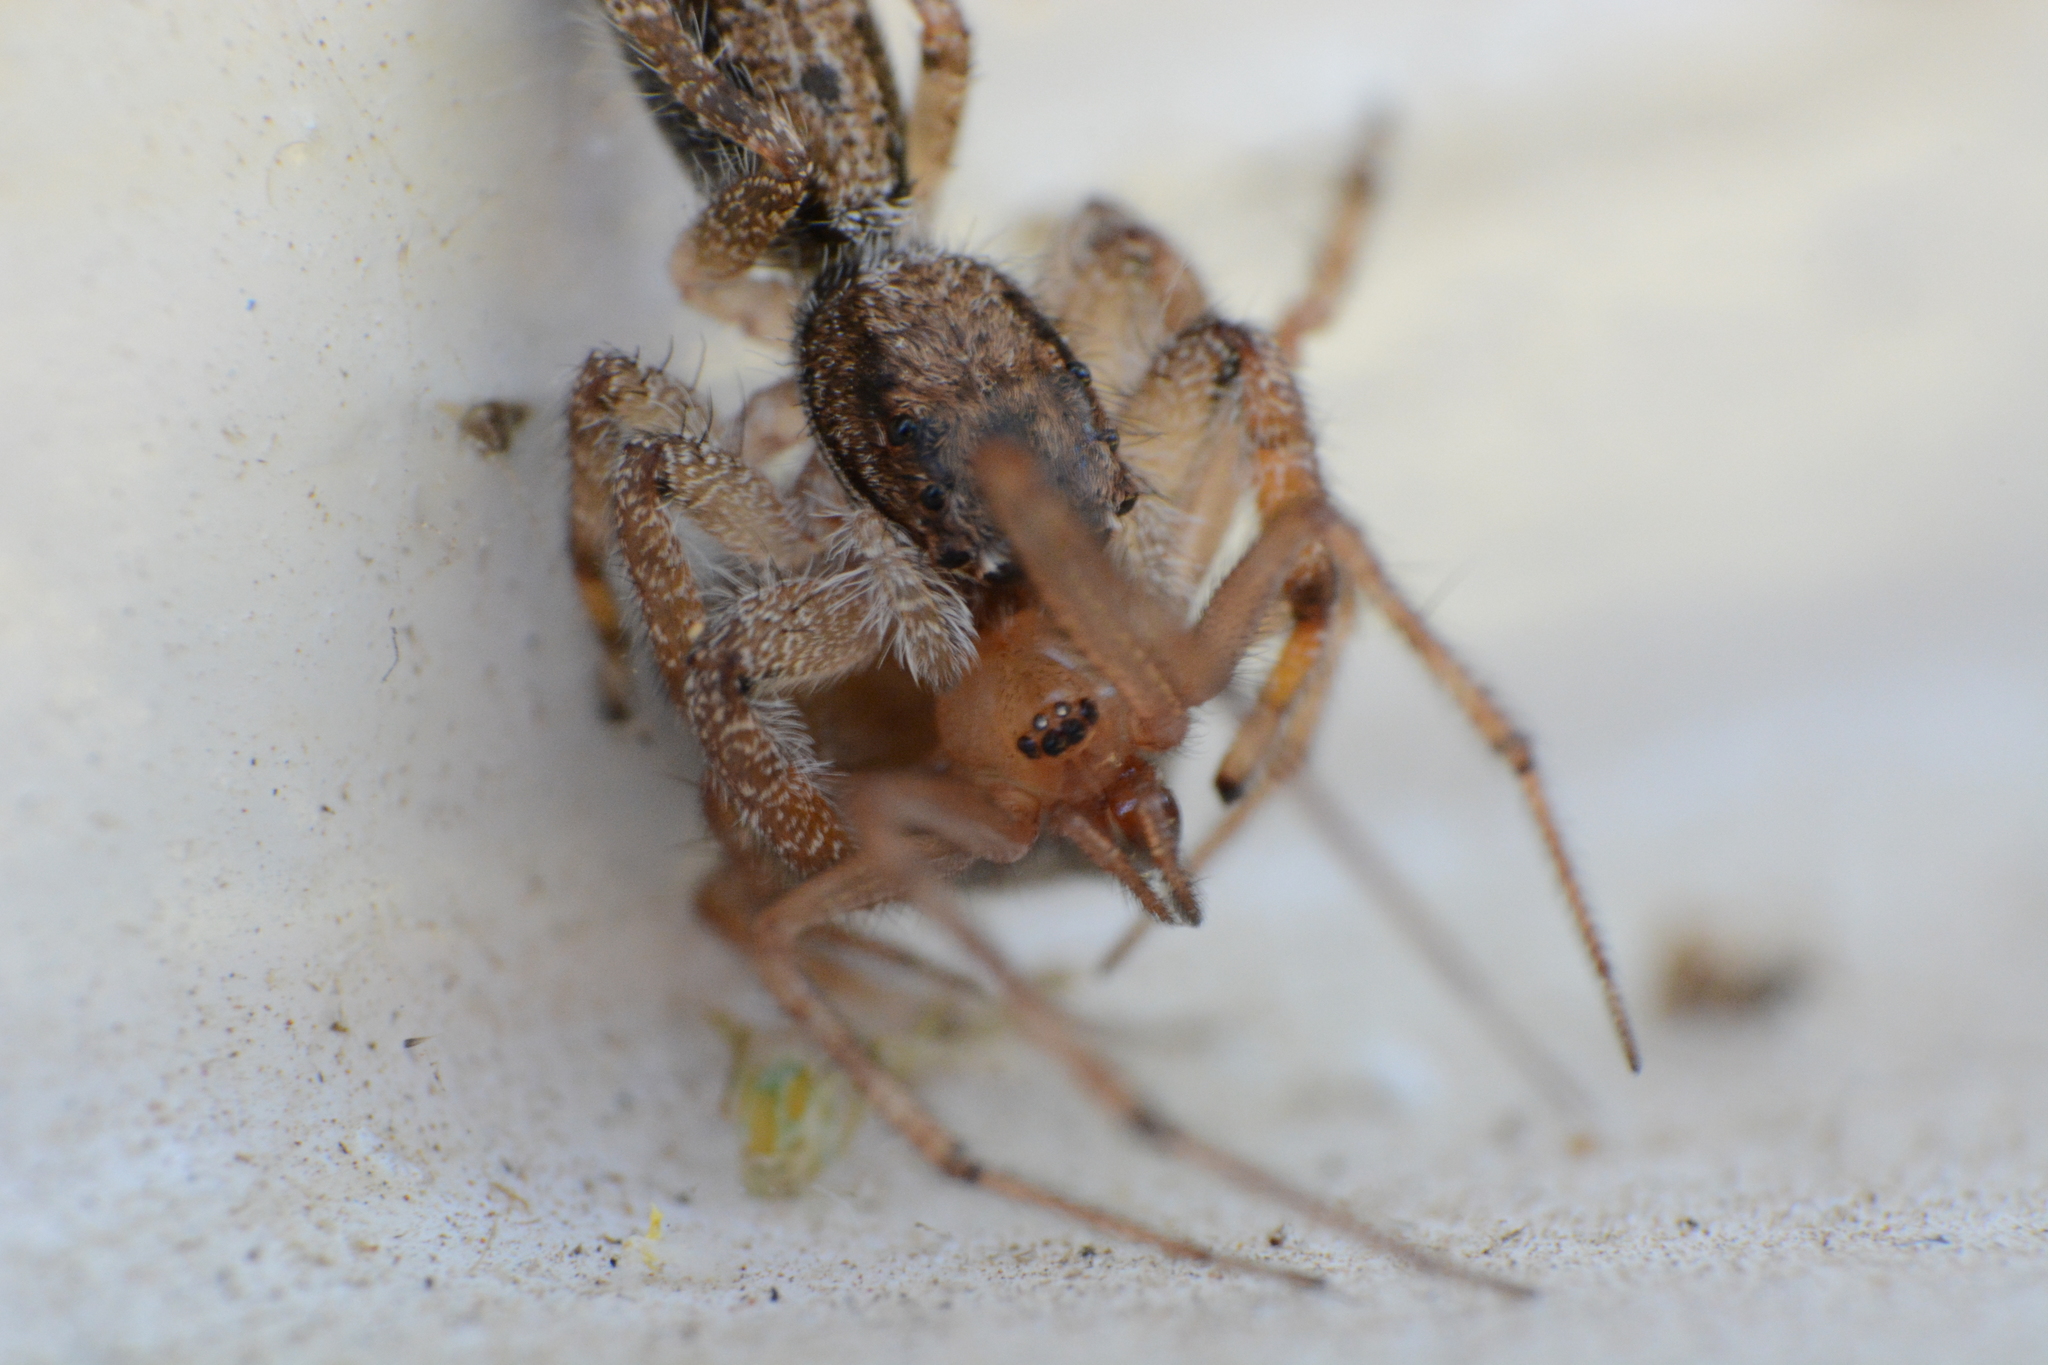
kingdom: Animalia
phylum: Arthropoda
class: Arachnida
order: Araneae
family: Salticidae
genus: Holcolaetis
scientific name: Holcolaetis zuluensis
